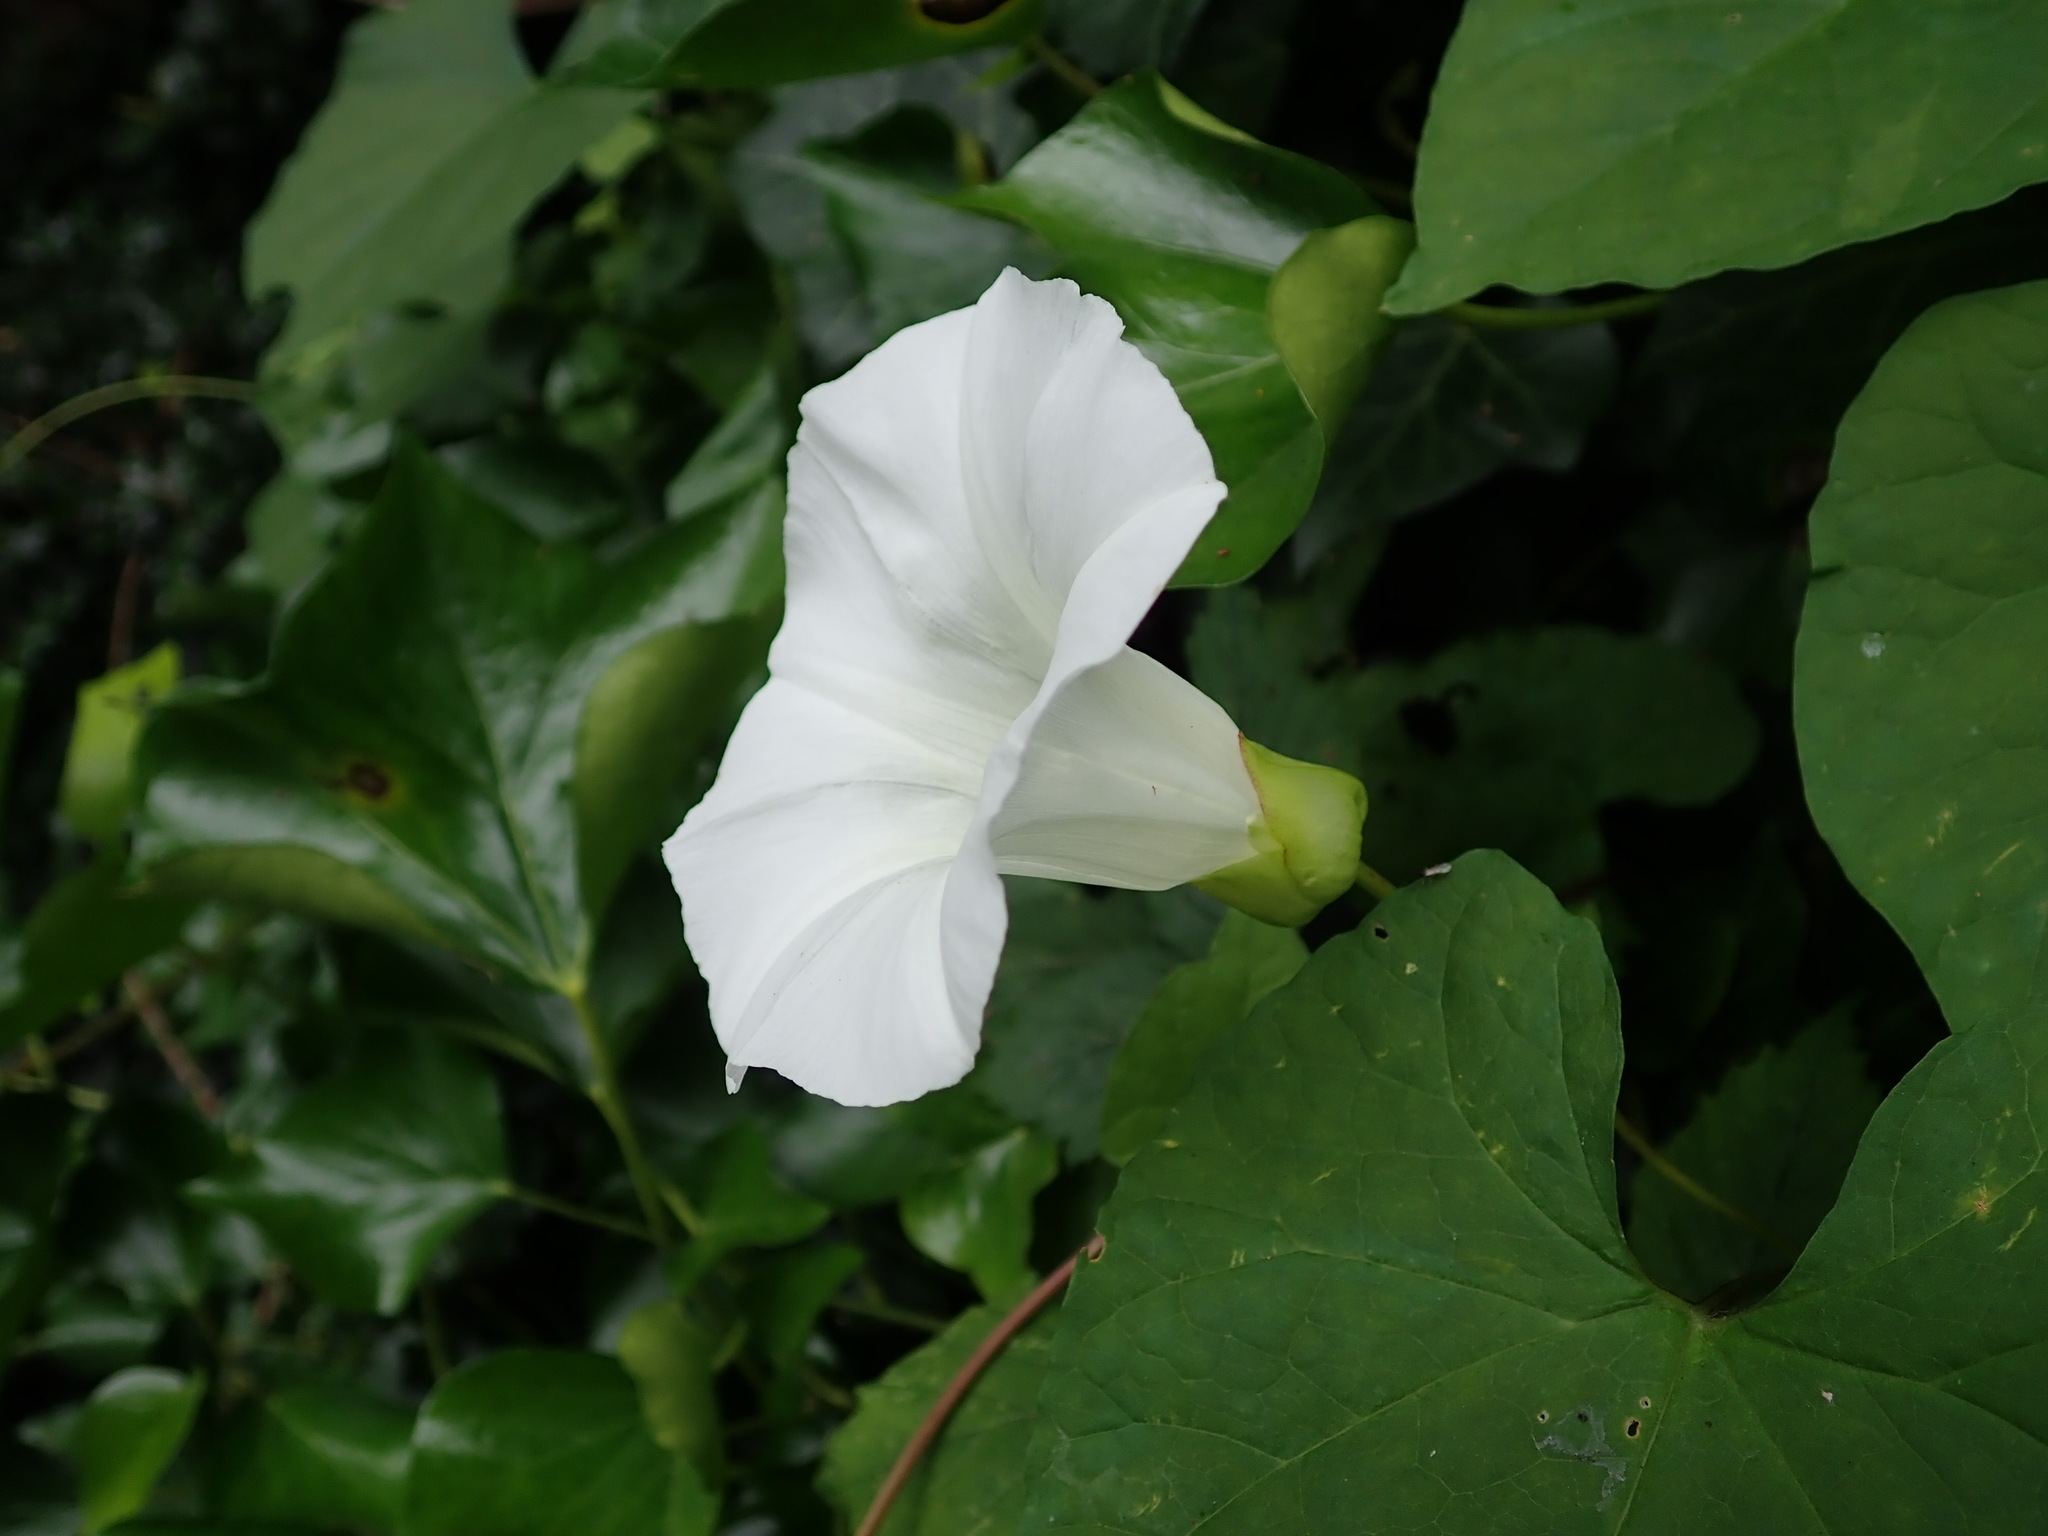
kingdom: Plantae
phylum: Tracheophyta
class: Magnoliopsida
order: Solanales
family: Convolvulaceae
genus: Calystegia
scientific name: Calystegia silvatica
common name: Large bindweed
